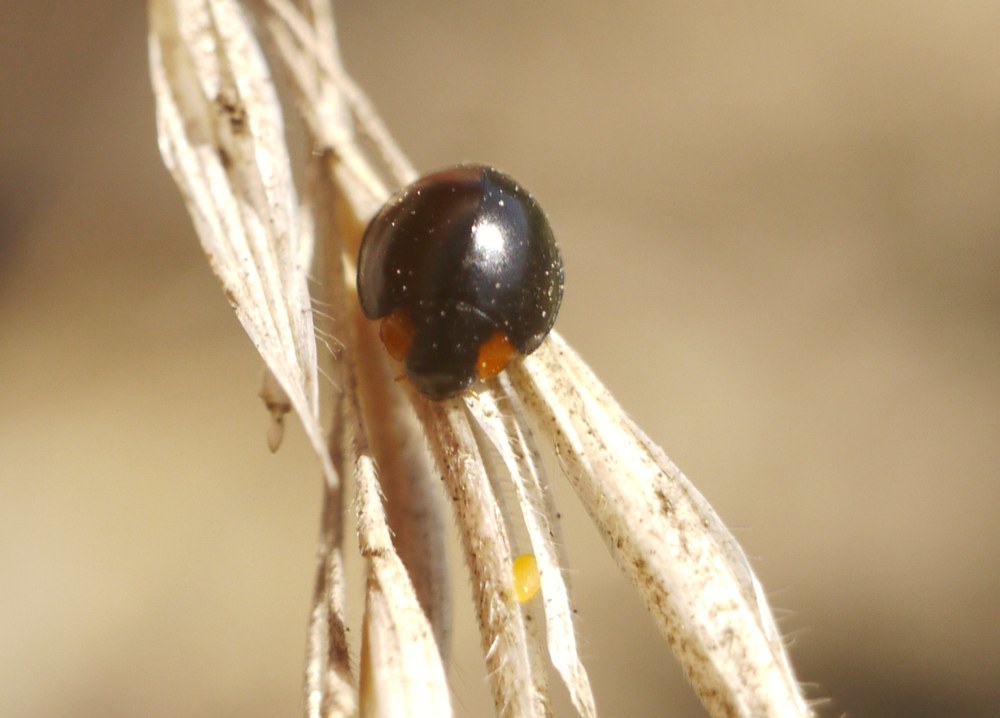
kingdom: Animalia
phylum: Arthropoda
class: Insecta
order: Coleoptera
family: Coccinellidae
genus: Parexochomus
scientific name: Parexochomus nigromaculatus
